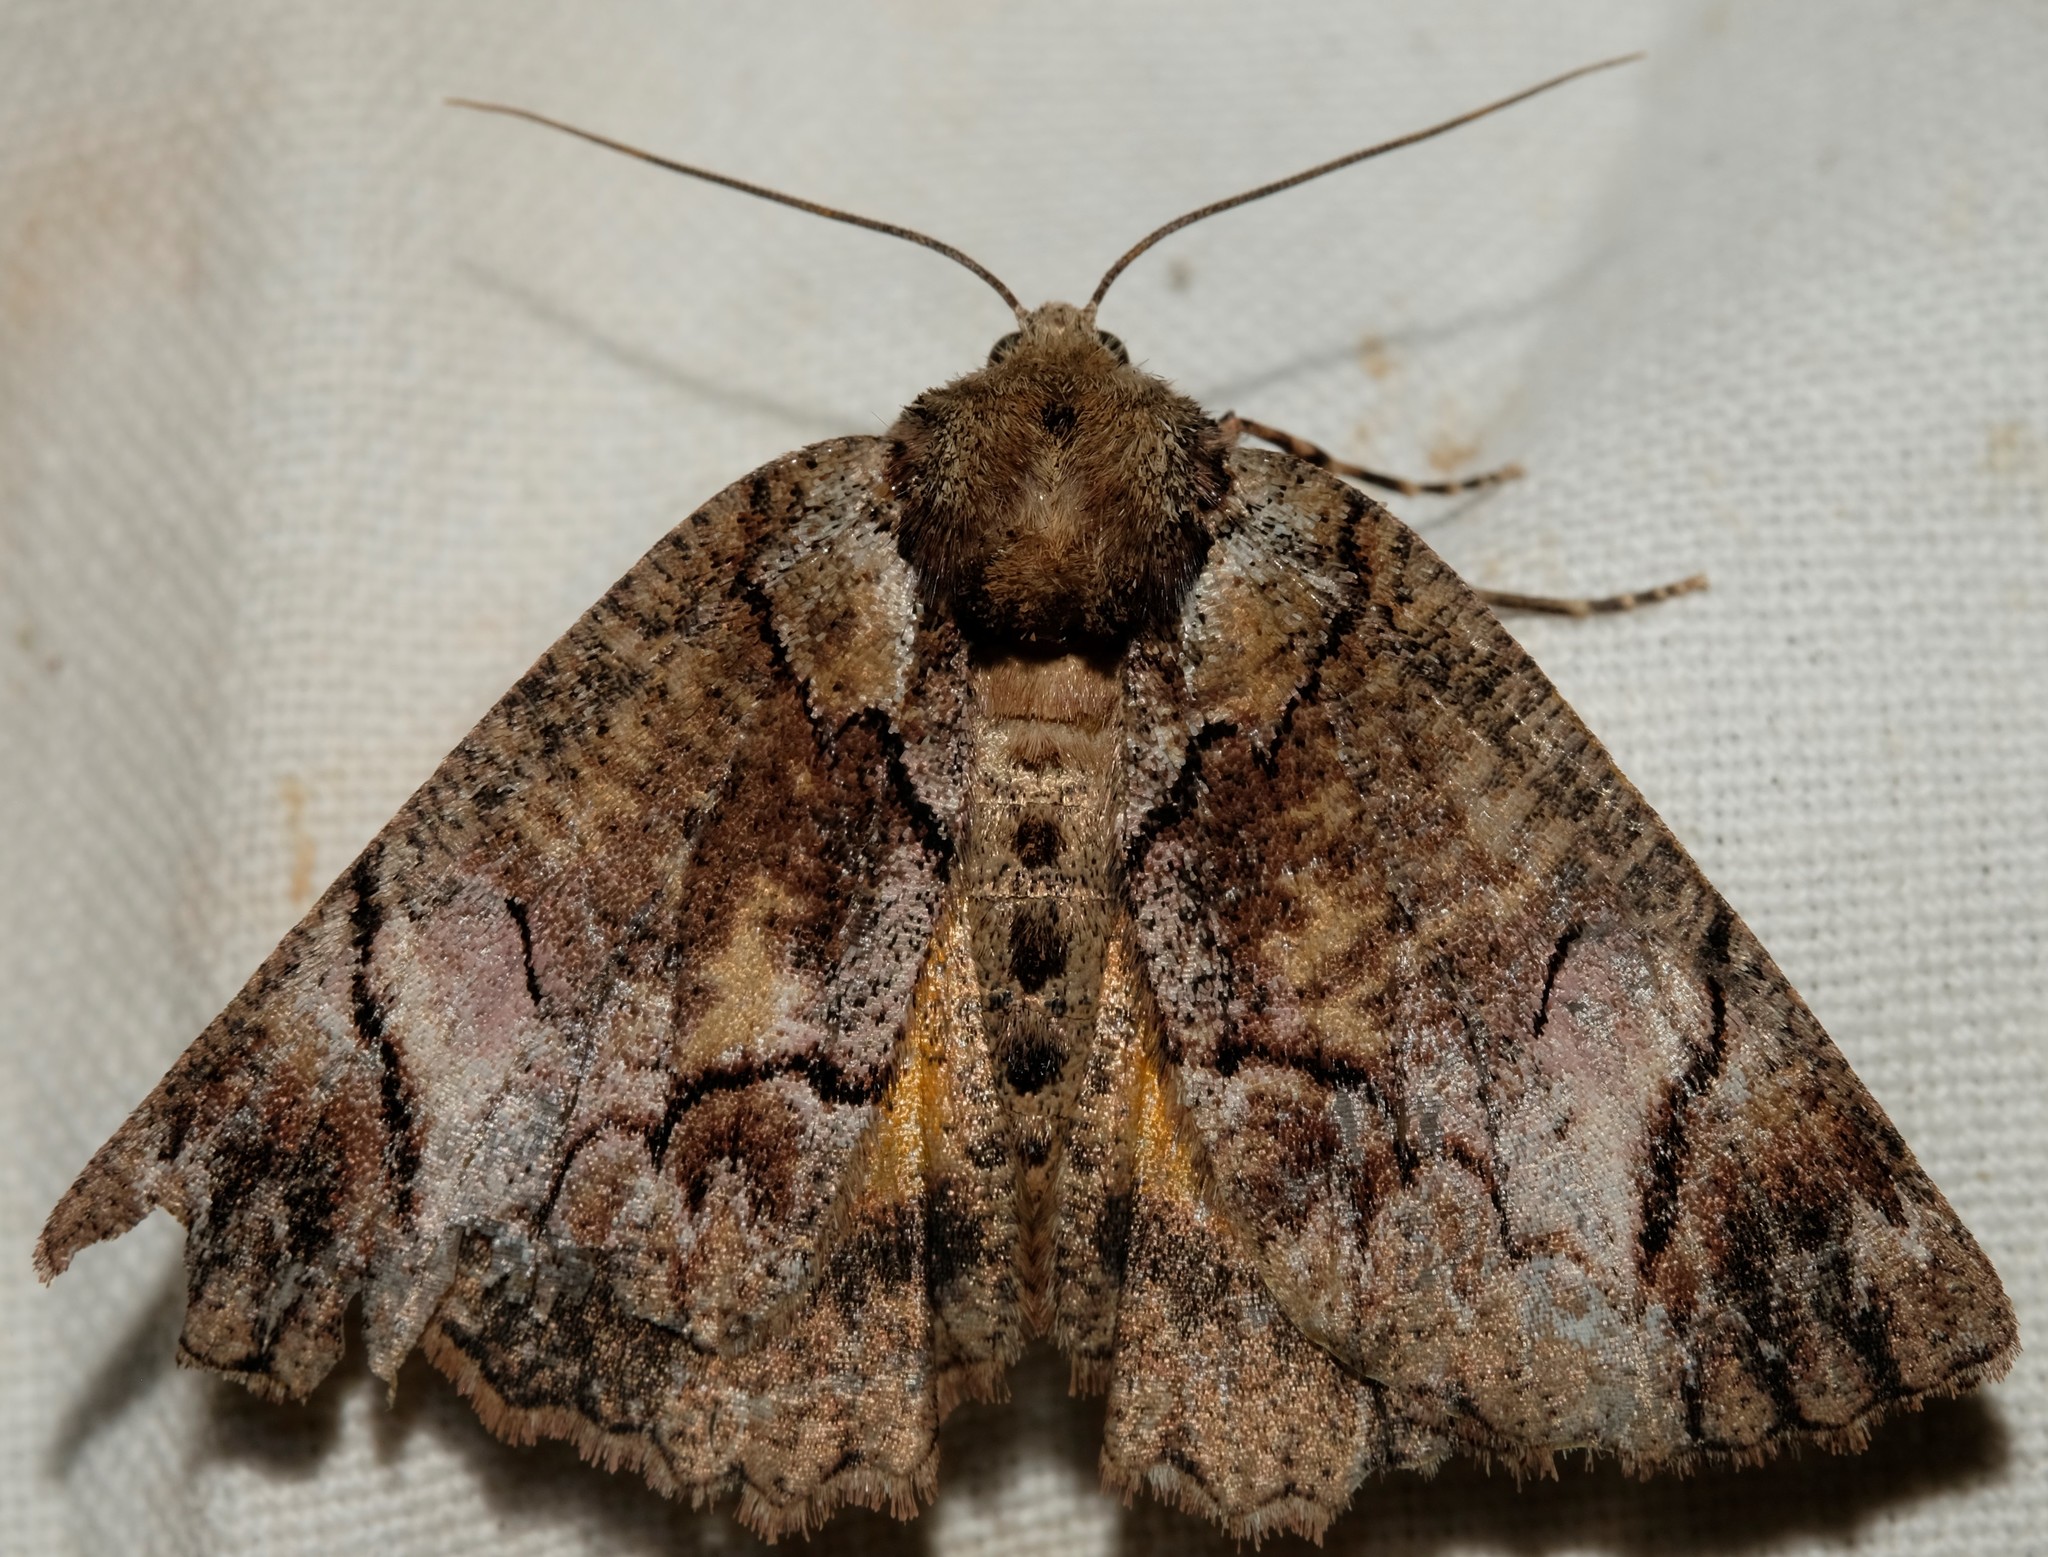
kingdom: Animalia
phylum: Arthropoda
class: Insecta
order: Lepidoptera
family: Geometridae
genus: Heliomystis
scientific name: Heliomystis electrica
